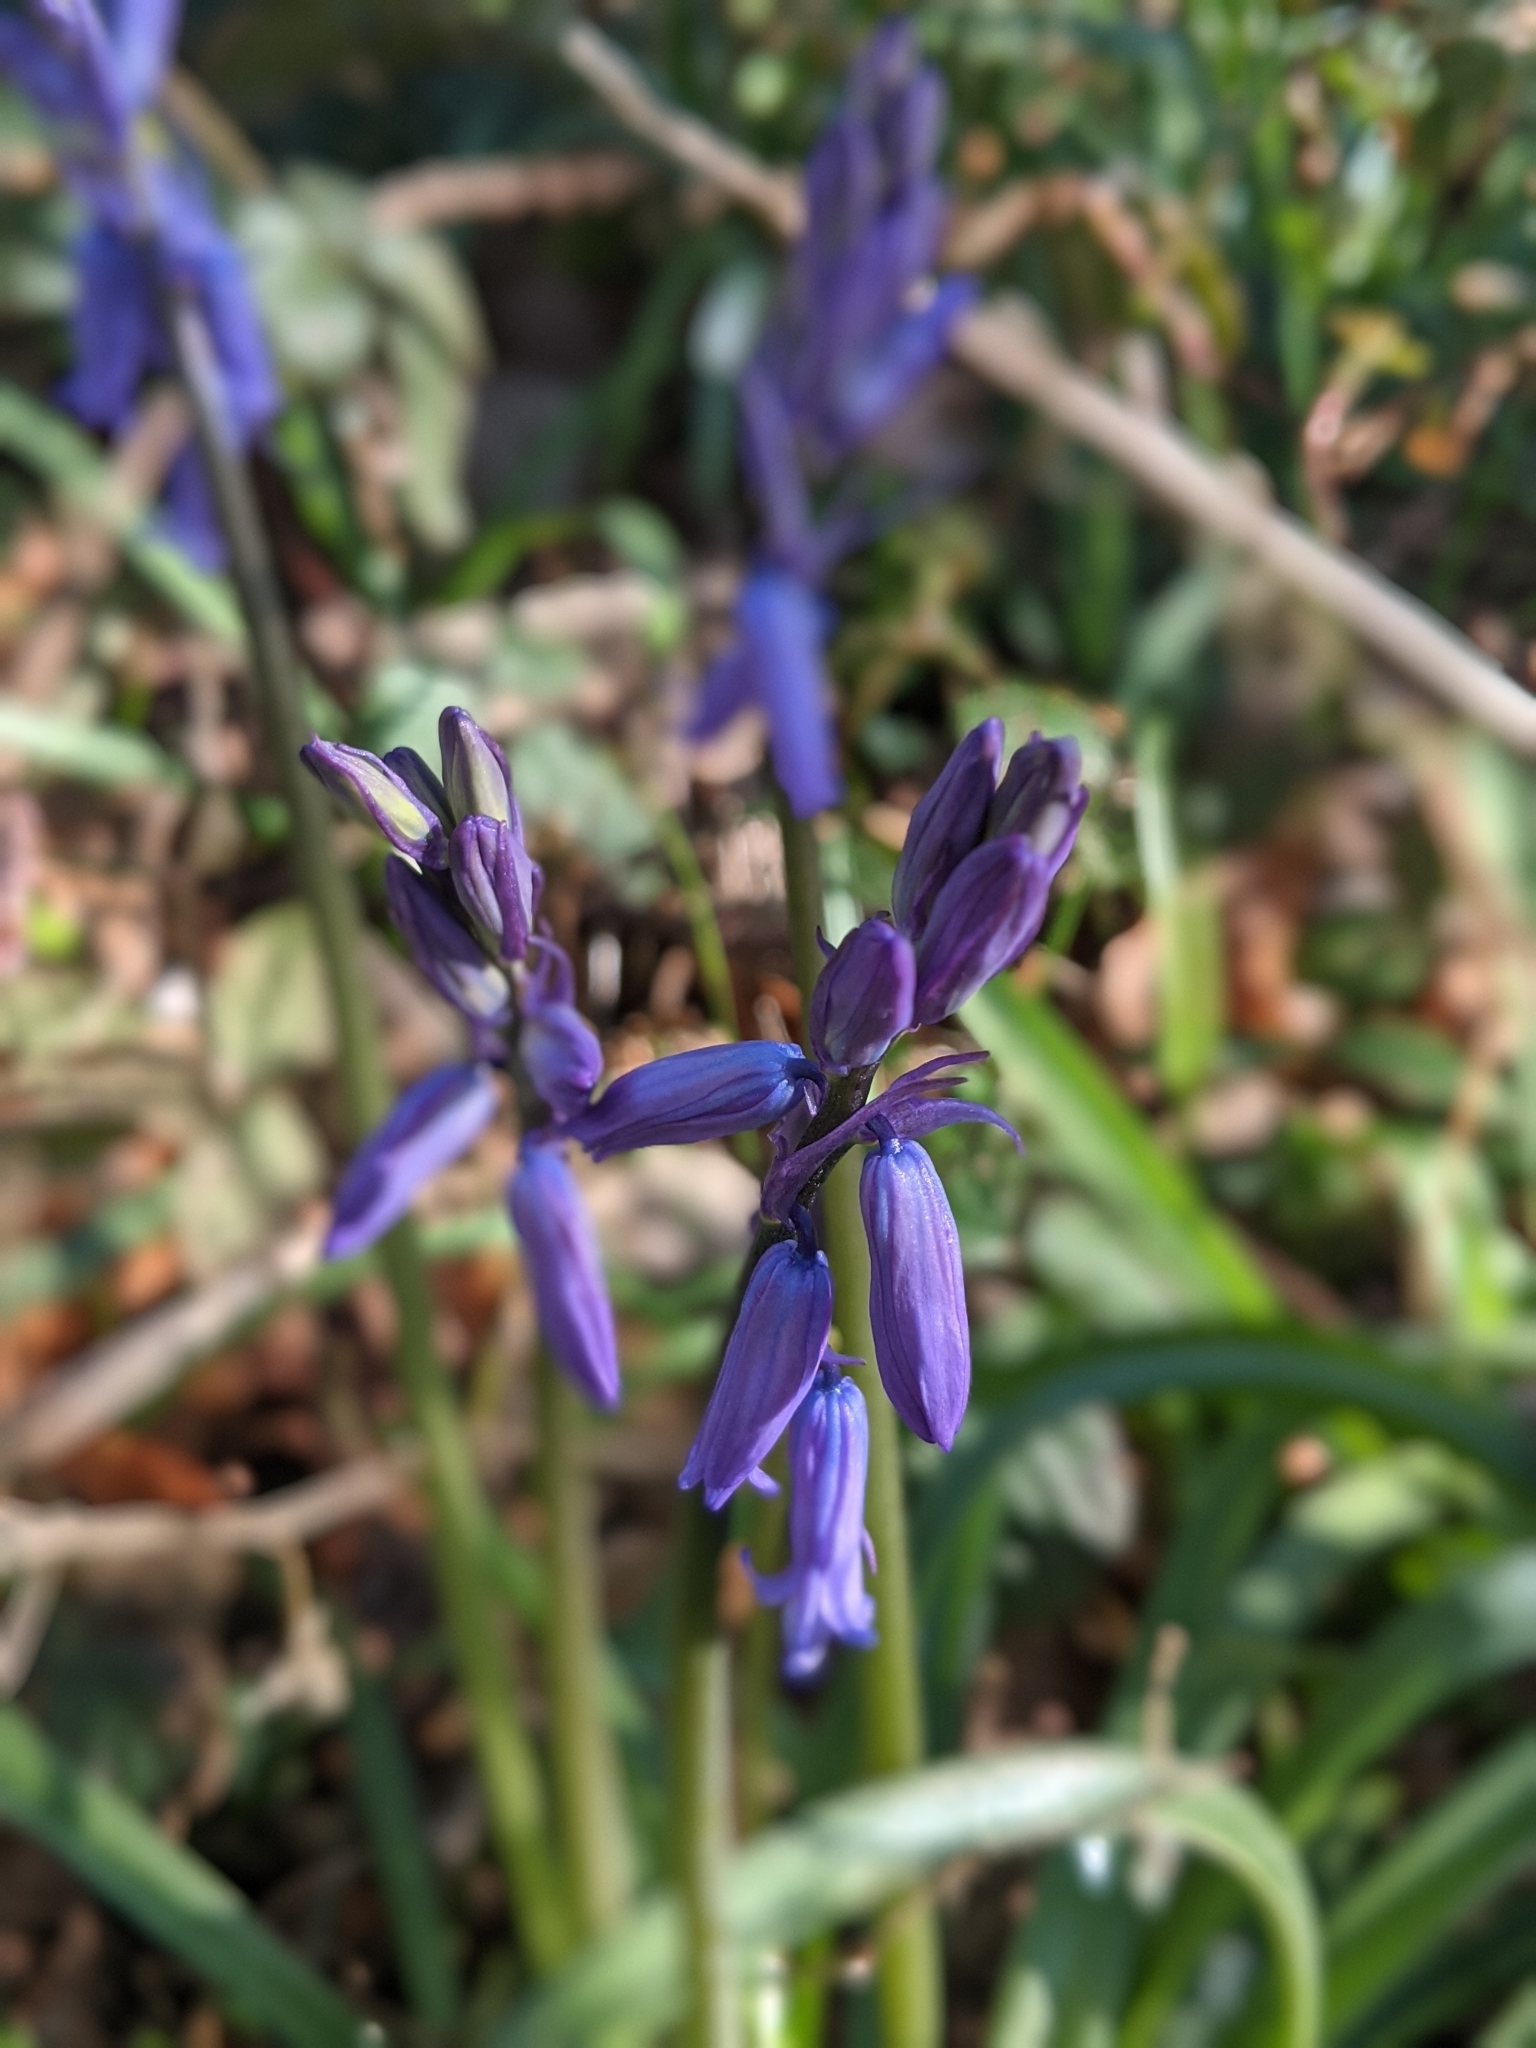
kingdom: Plantae
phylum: Tracheophyta
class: Liliopsida
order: Asparagales
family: Asparagaceae
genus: Hyacinthoides
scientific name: Hyacinthoides non-scripta
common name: Bluebell
